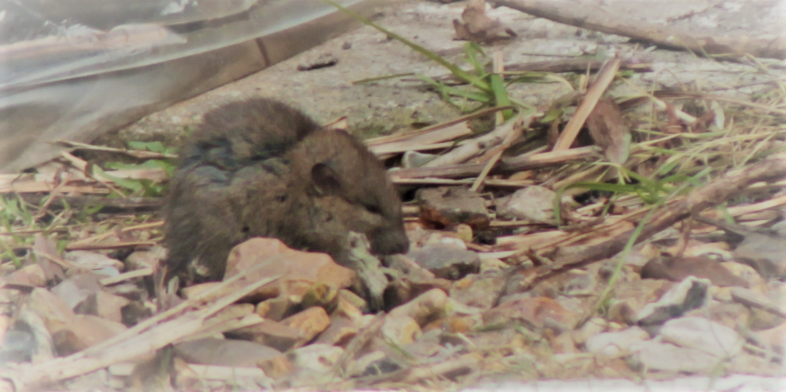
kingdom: Animalia
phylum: Chordata
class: Mammalia
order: Rodentia
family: Muridae
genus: Rattus
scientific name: Rattus norvegicus
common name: Brown rat
